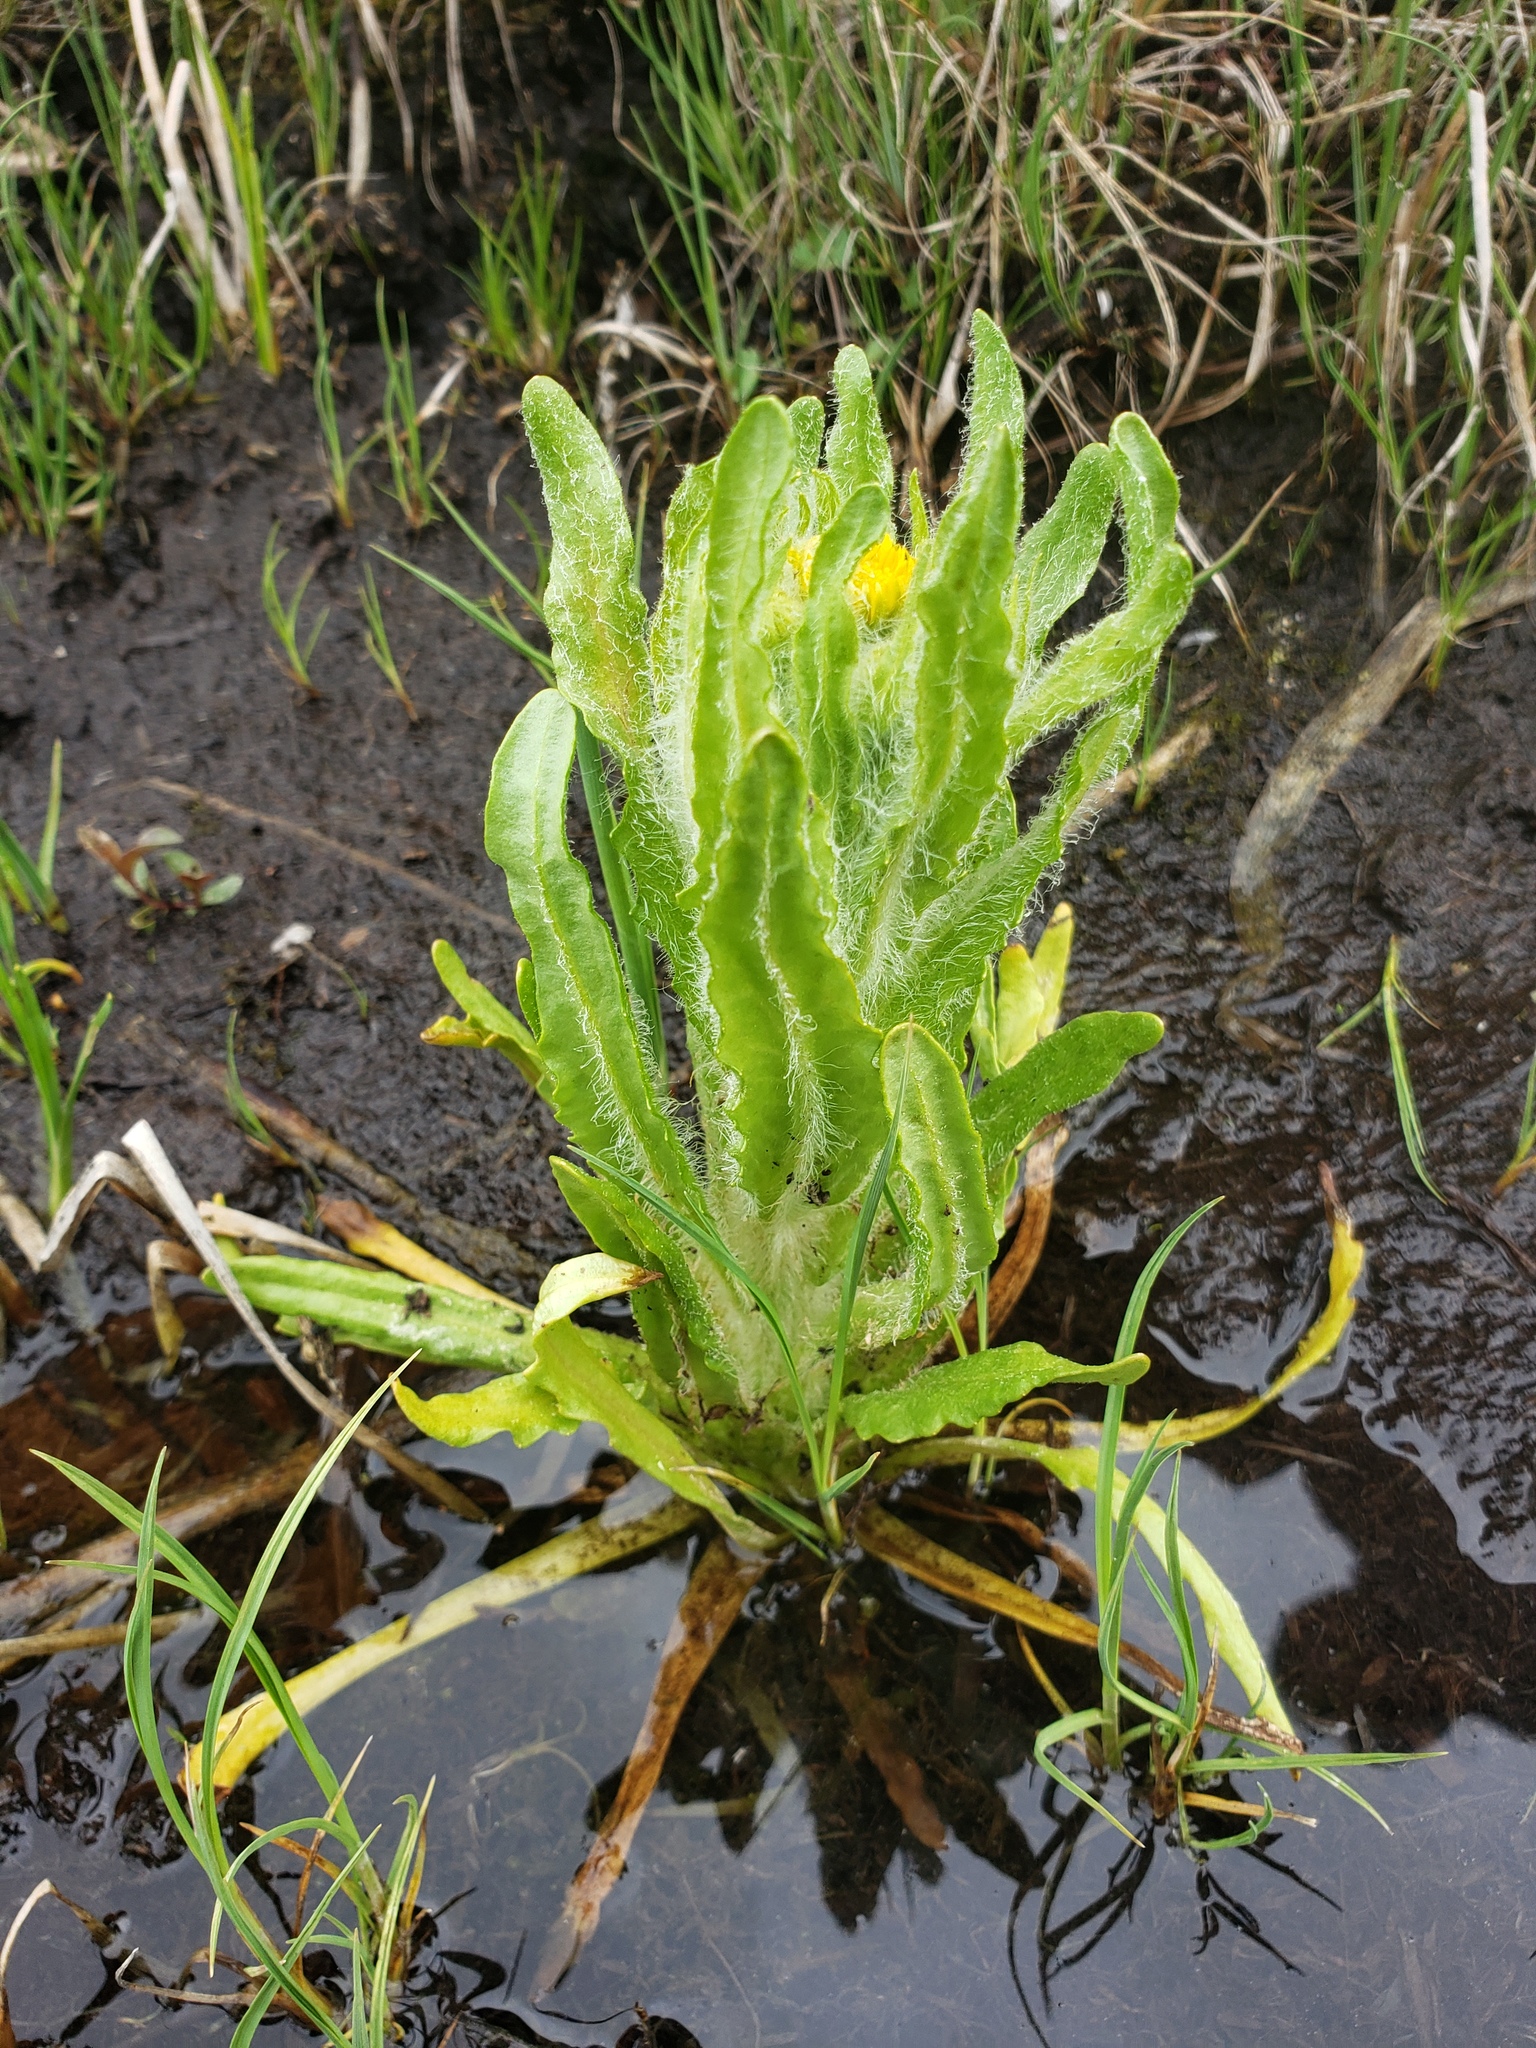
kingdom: Plantae
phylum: Tracheophyta
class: Magnoliopsida
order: Asterales
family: Asteraceae
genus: Tephroseris
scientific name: Tephroseris palustris
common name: Marsh fleawort
